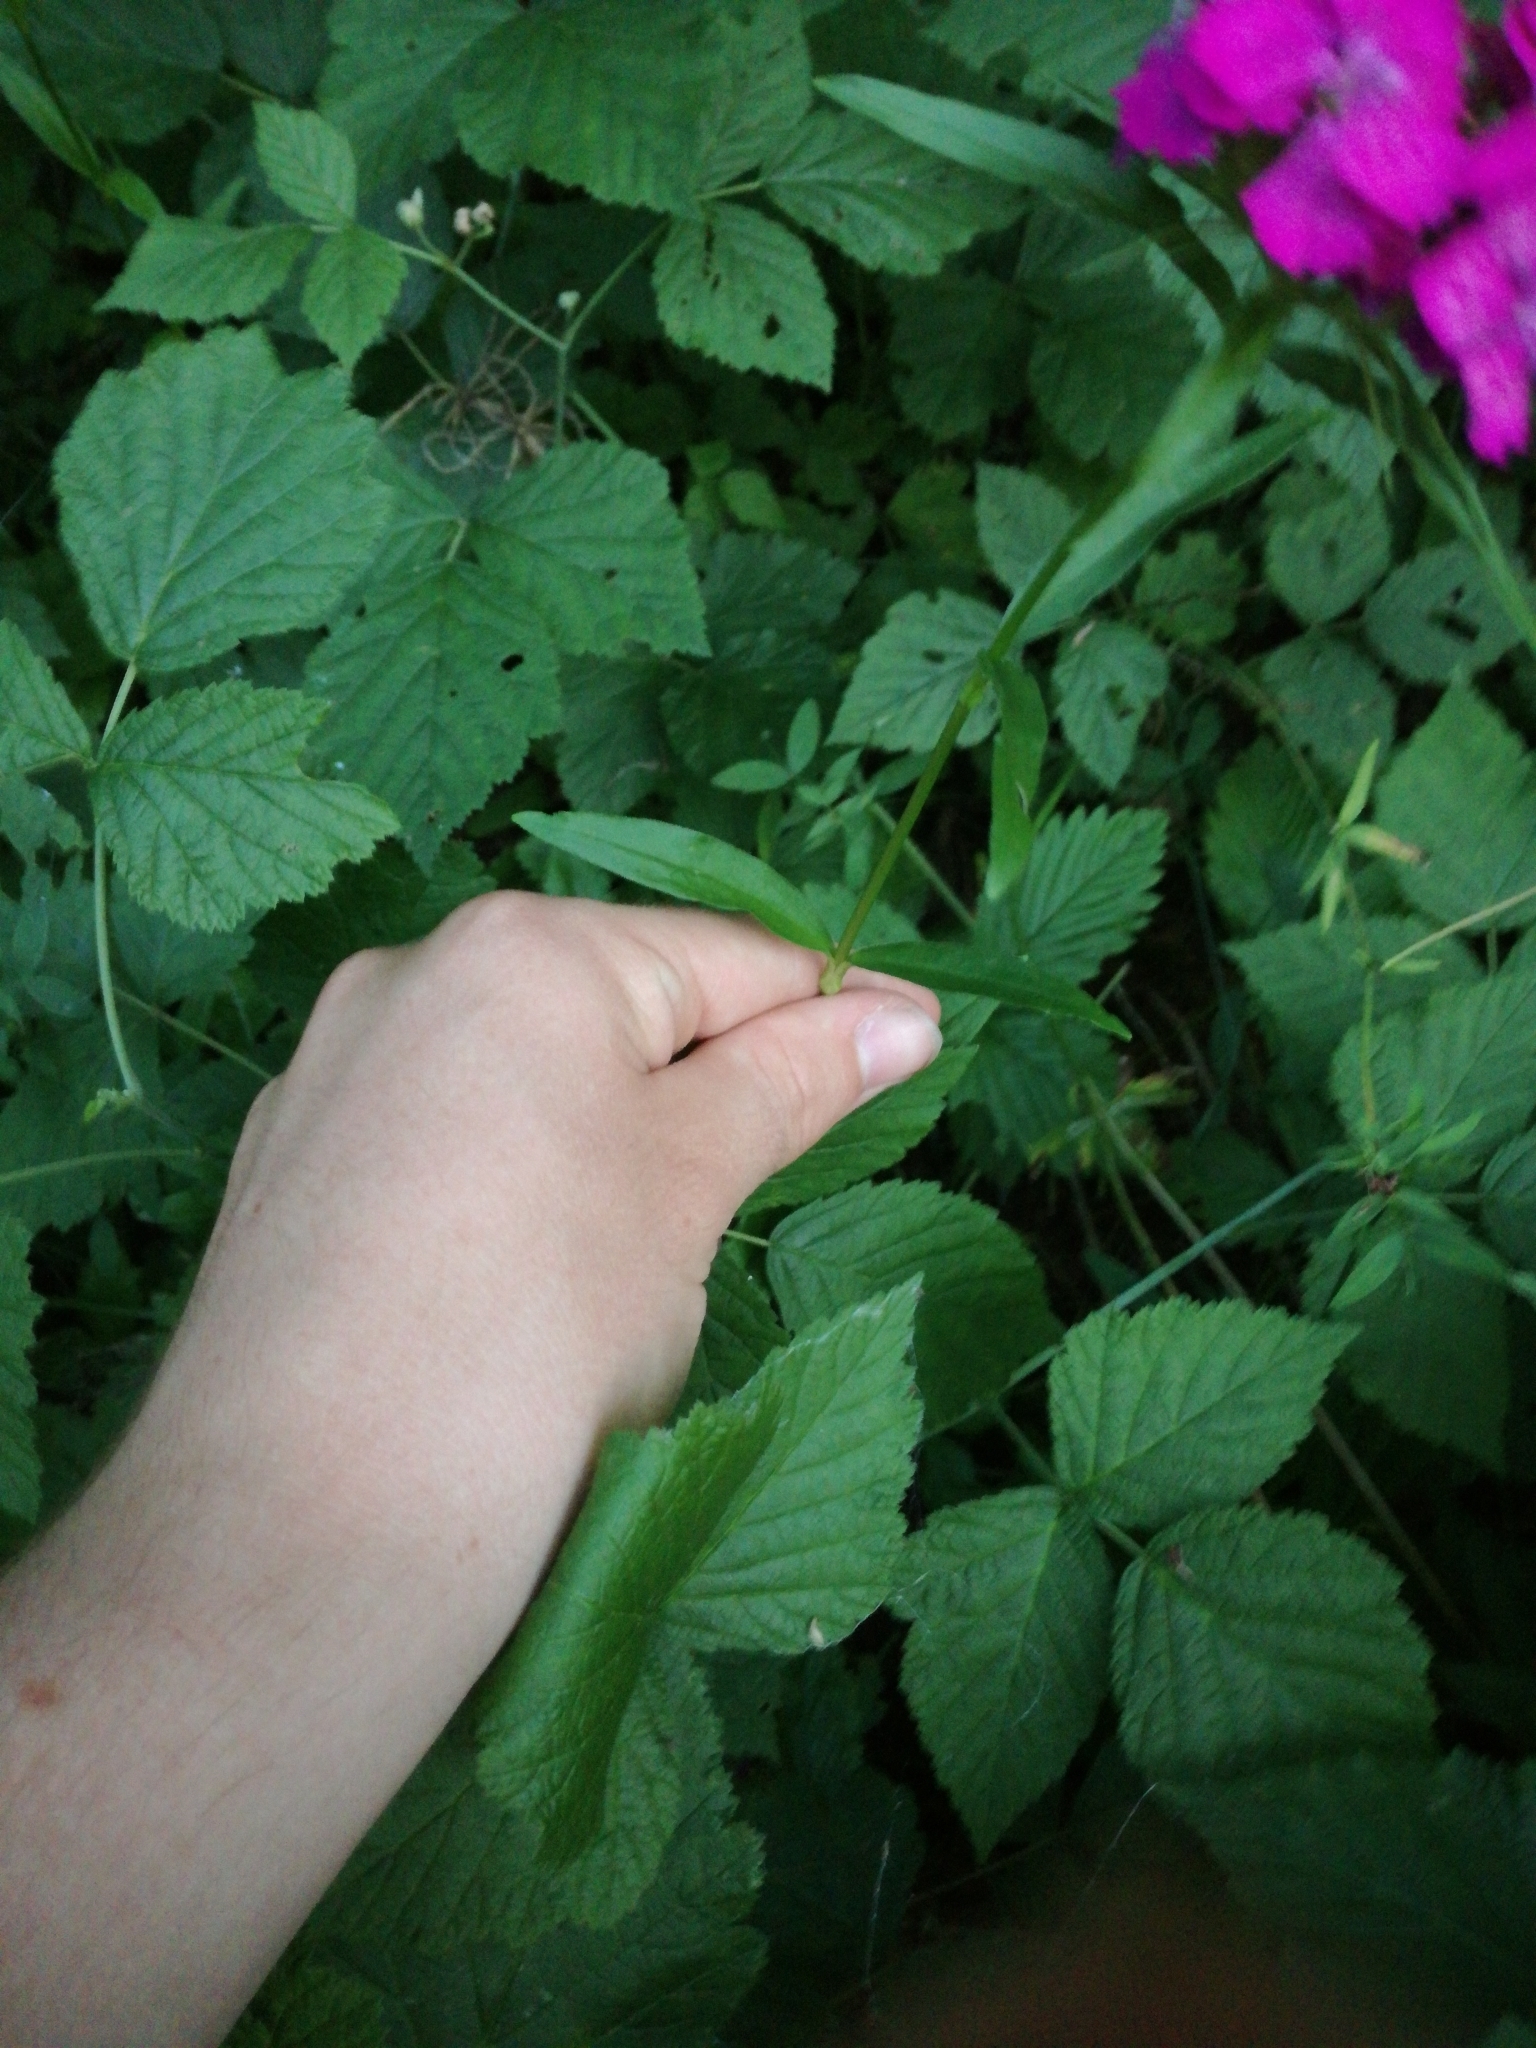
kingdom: Plantae
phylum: Tracheophyta
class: Magnoliopsida
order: Caryophyllales
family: Caryophyllaceae
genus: Dianthus
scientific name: Dianthus barbatus
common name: Sweet-william
